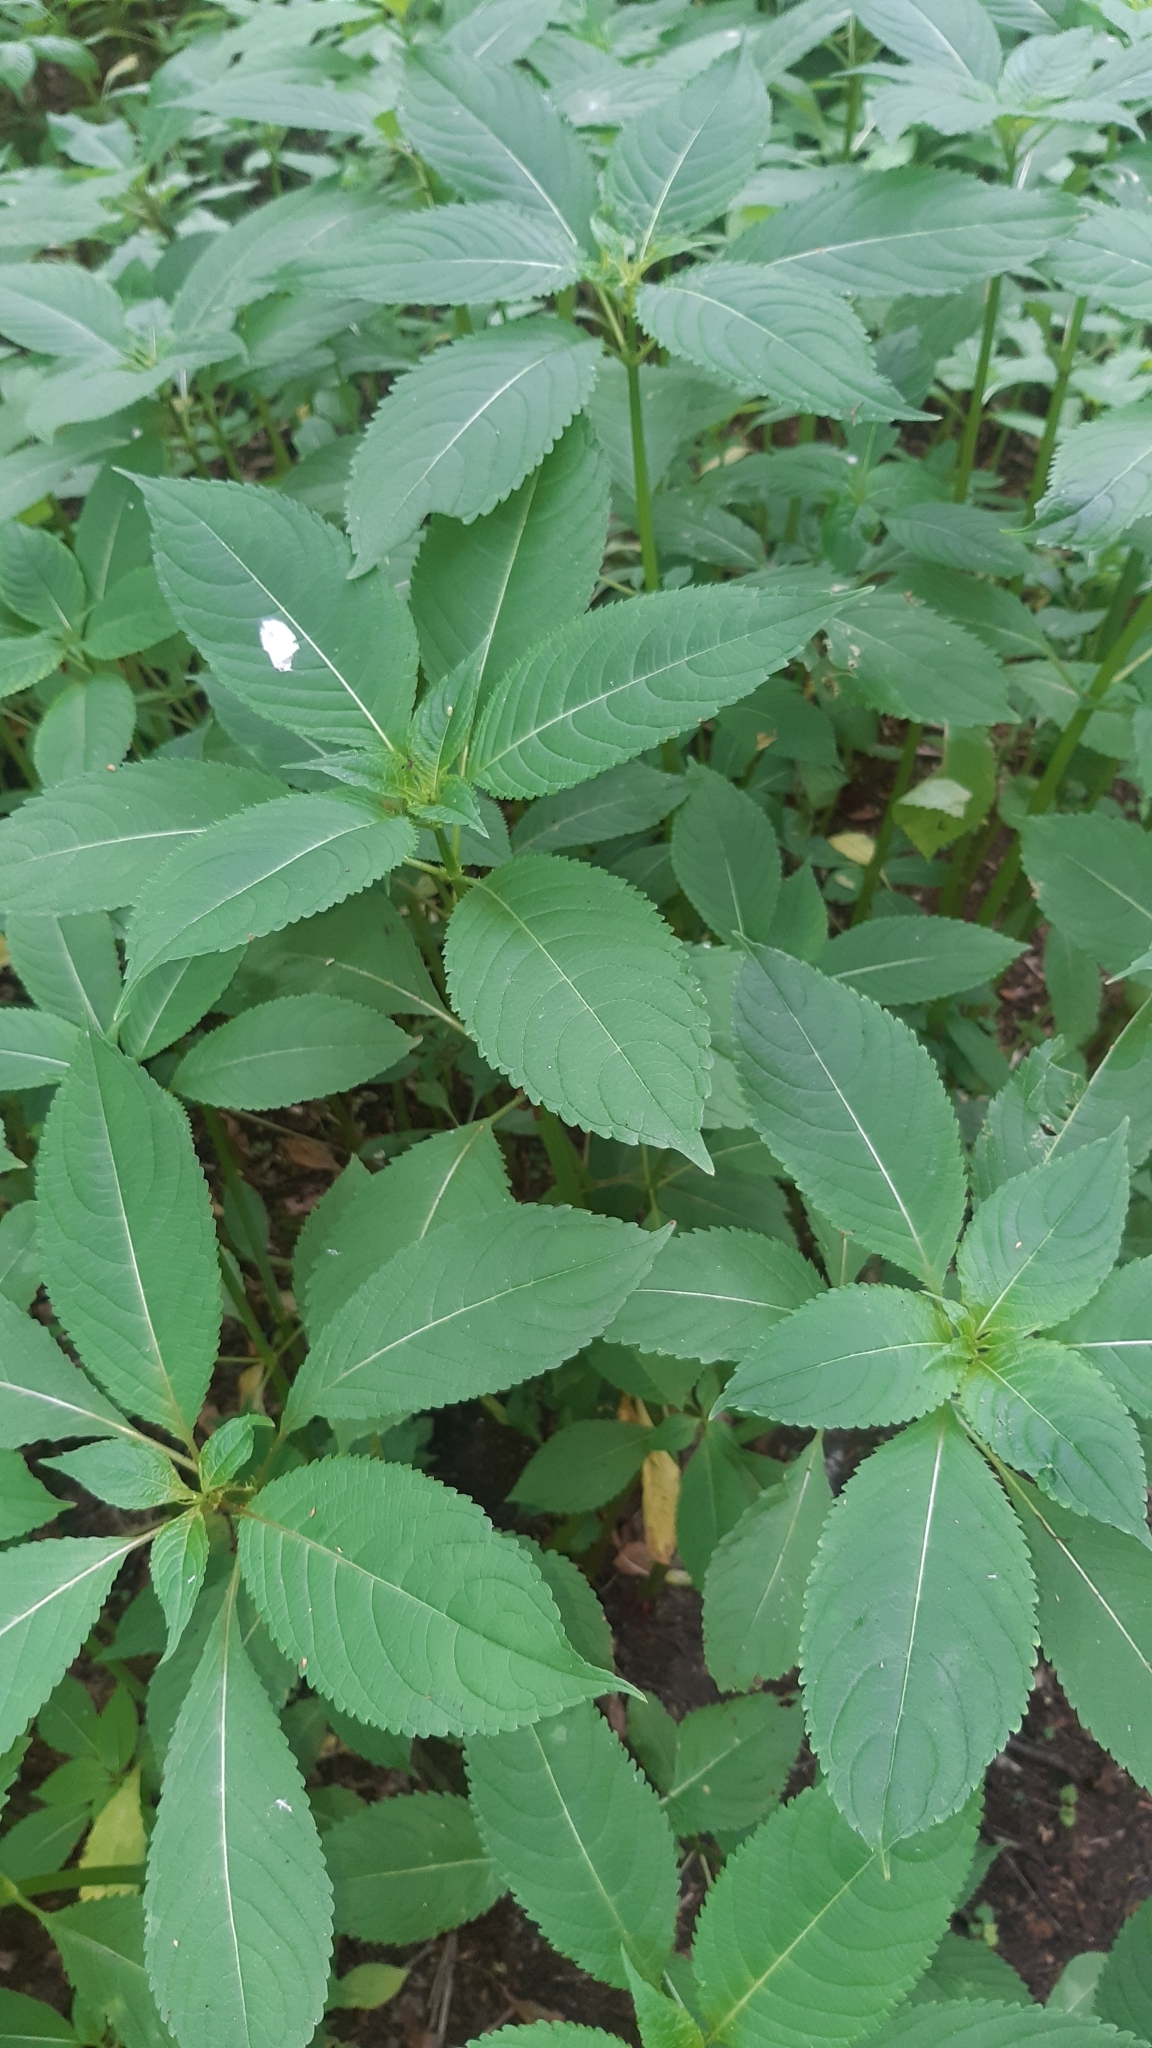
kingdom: Plantae
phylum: Tracheophyta
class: Magnoliopsida
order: Ericales
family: Balsaminaceae
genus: Impatiens
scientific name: Impatiens glandulifera
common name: Himalayan balsam
